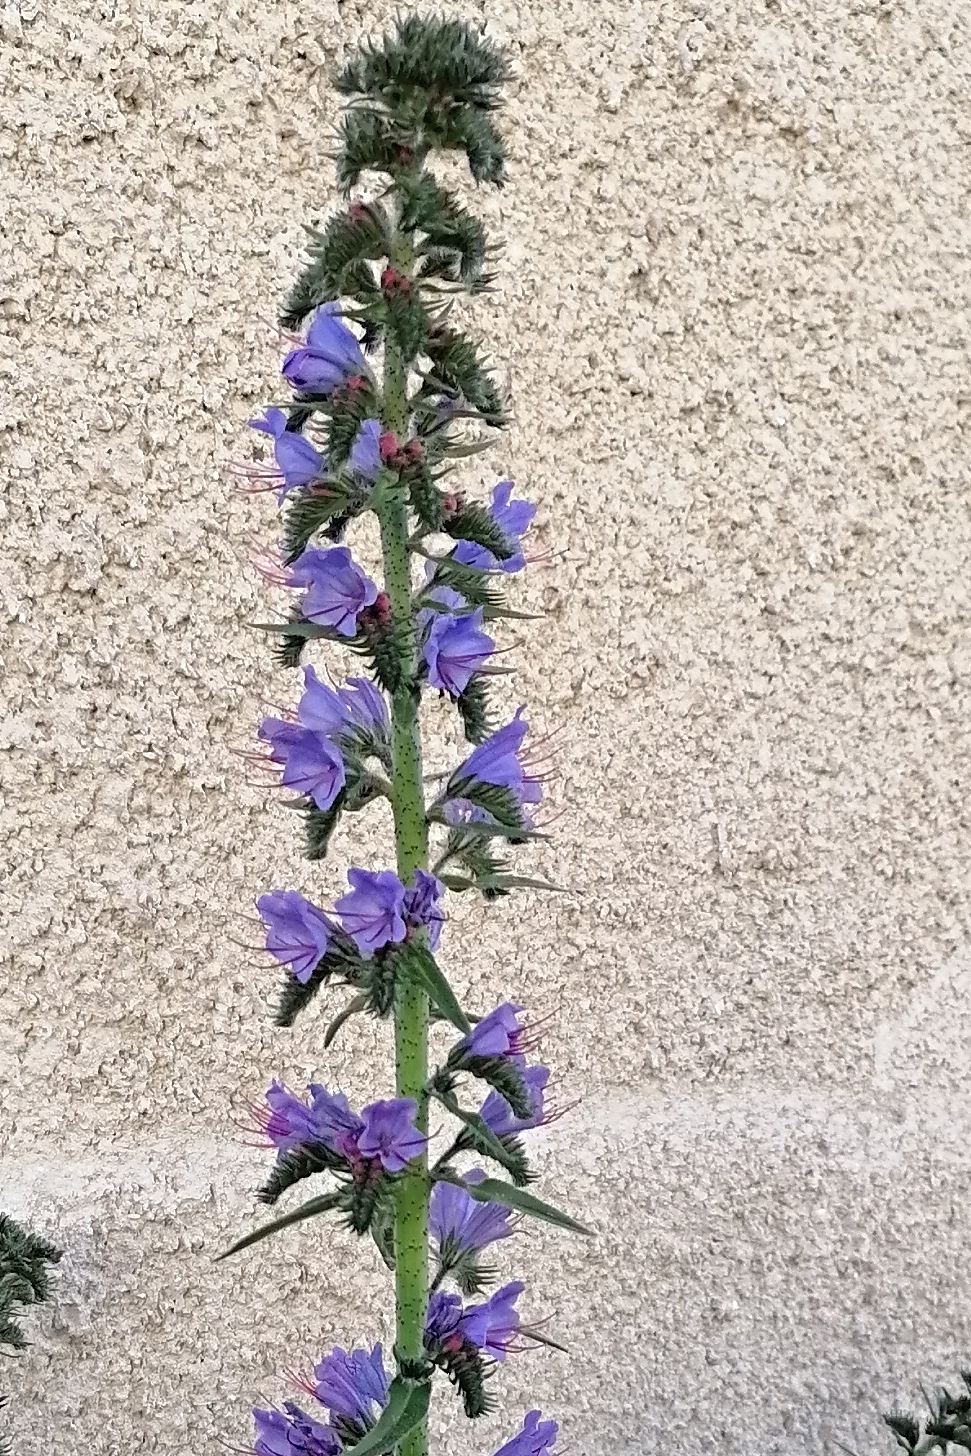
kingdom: Plantae
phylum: Tracheophyta
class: Magnoliopsida
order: Boraginales
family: Boraginaceae
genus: Echium
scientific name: Echium vulgare
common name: Common viper's bugloss
